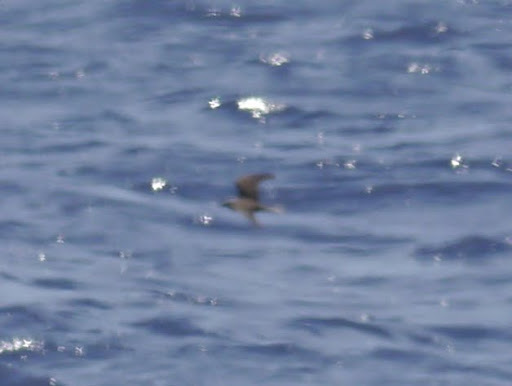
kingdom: Animalia
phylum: Chordata
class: Aves
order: Charadriiformes
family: Laridae
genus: Anous
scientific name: Anous minutus
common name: Black noddy
